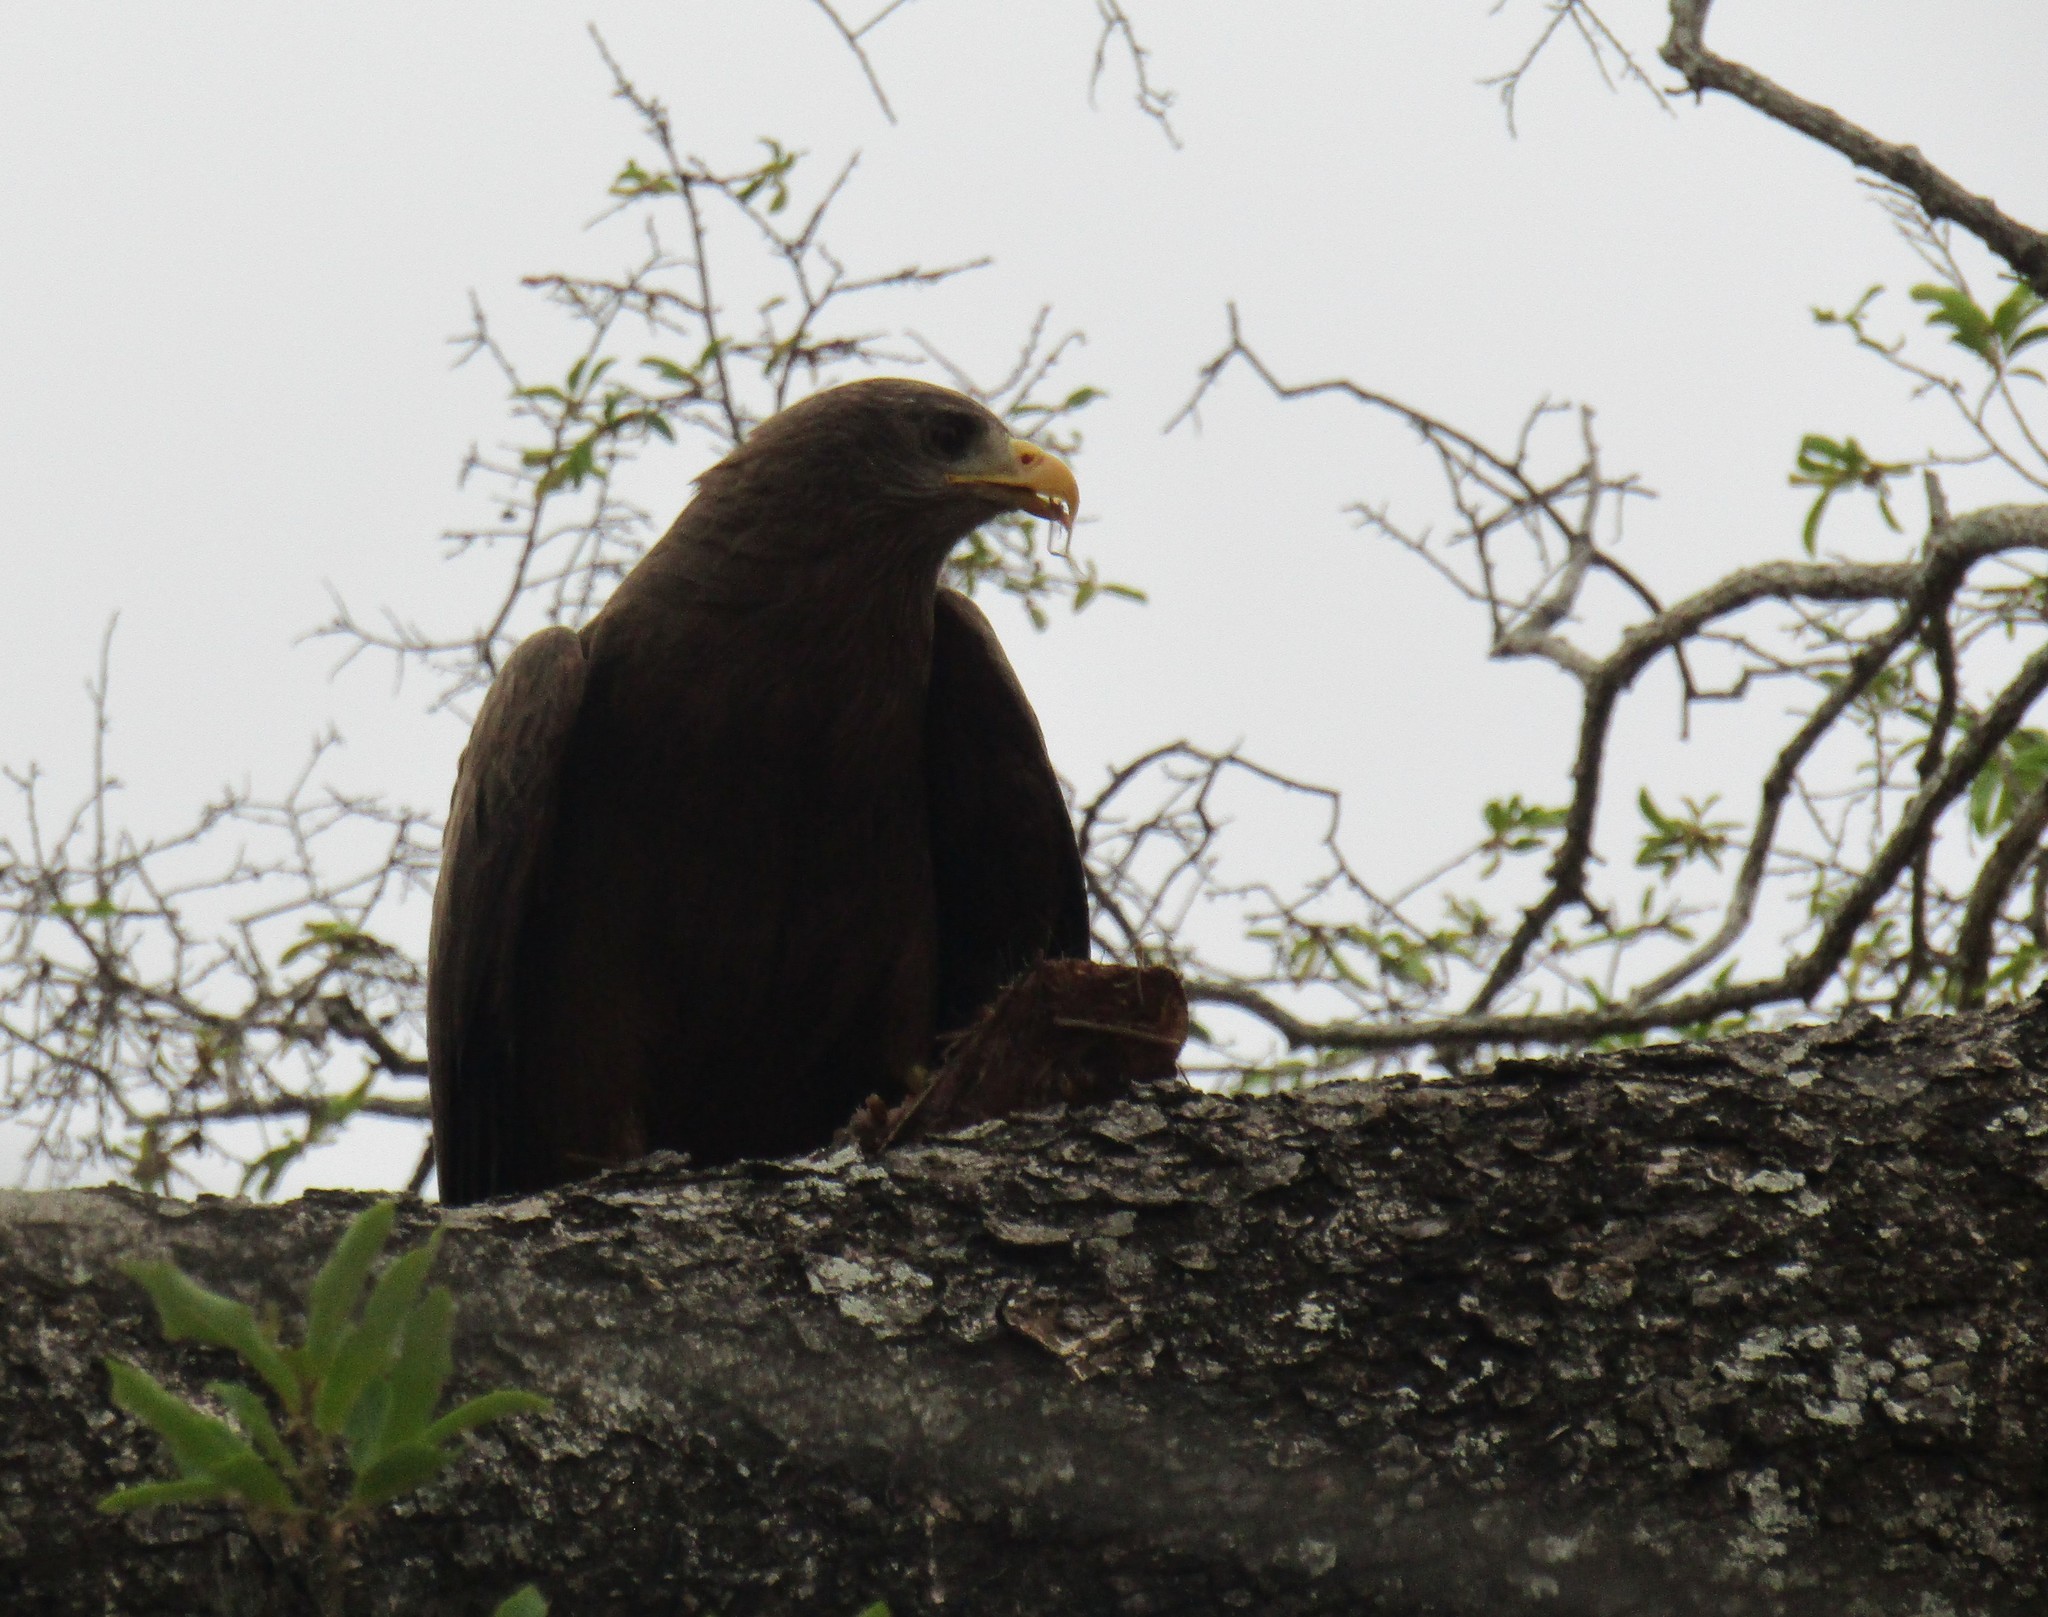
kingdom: Animalia
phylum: Chordata
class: Aves
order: Accipitriformes
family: Accipitridae
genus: Milvus
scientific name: Milvus migrans
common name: Black kite
